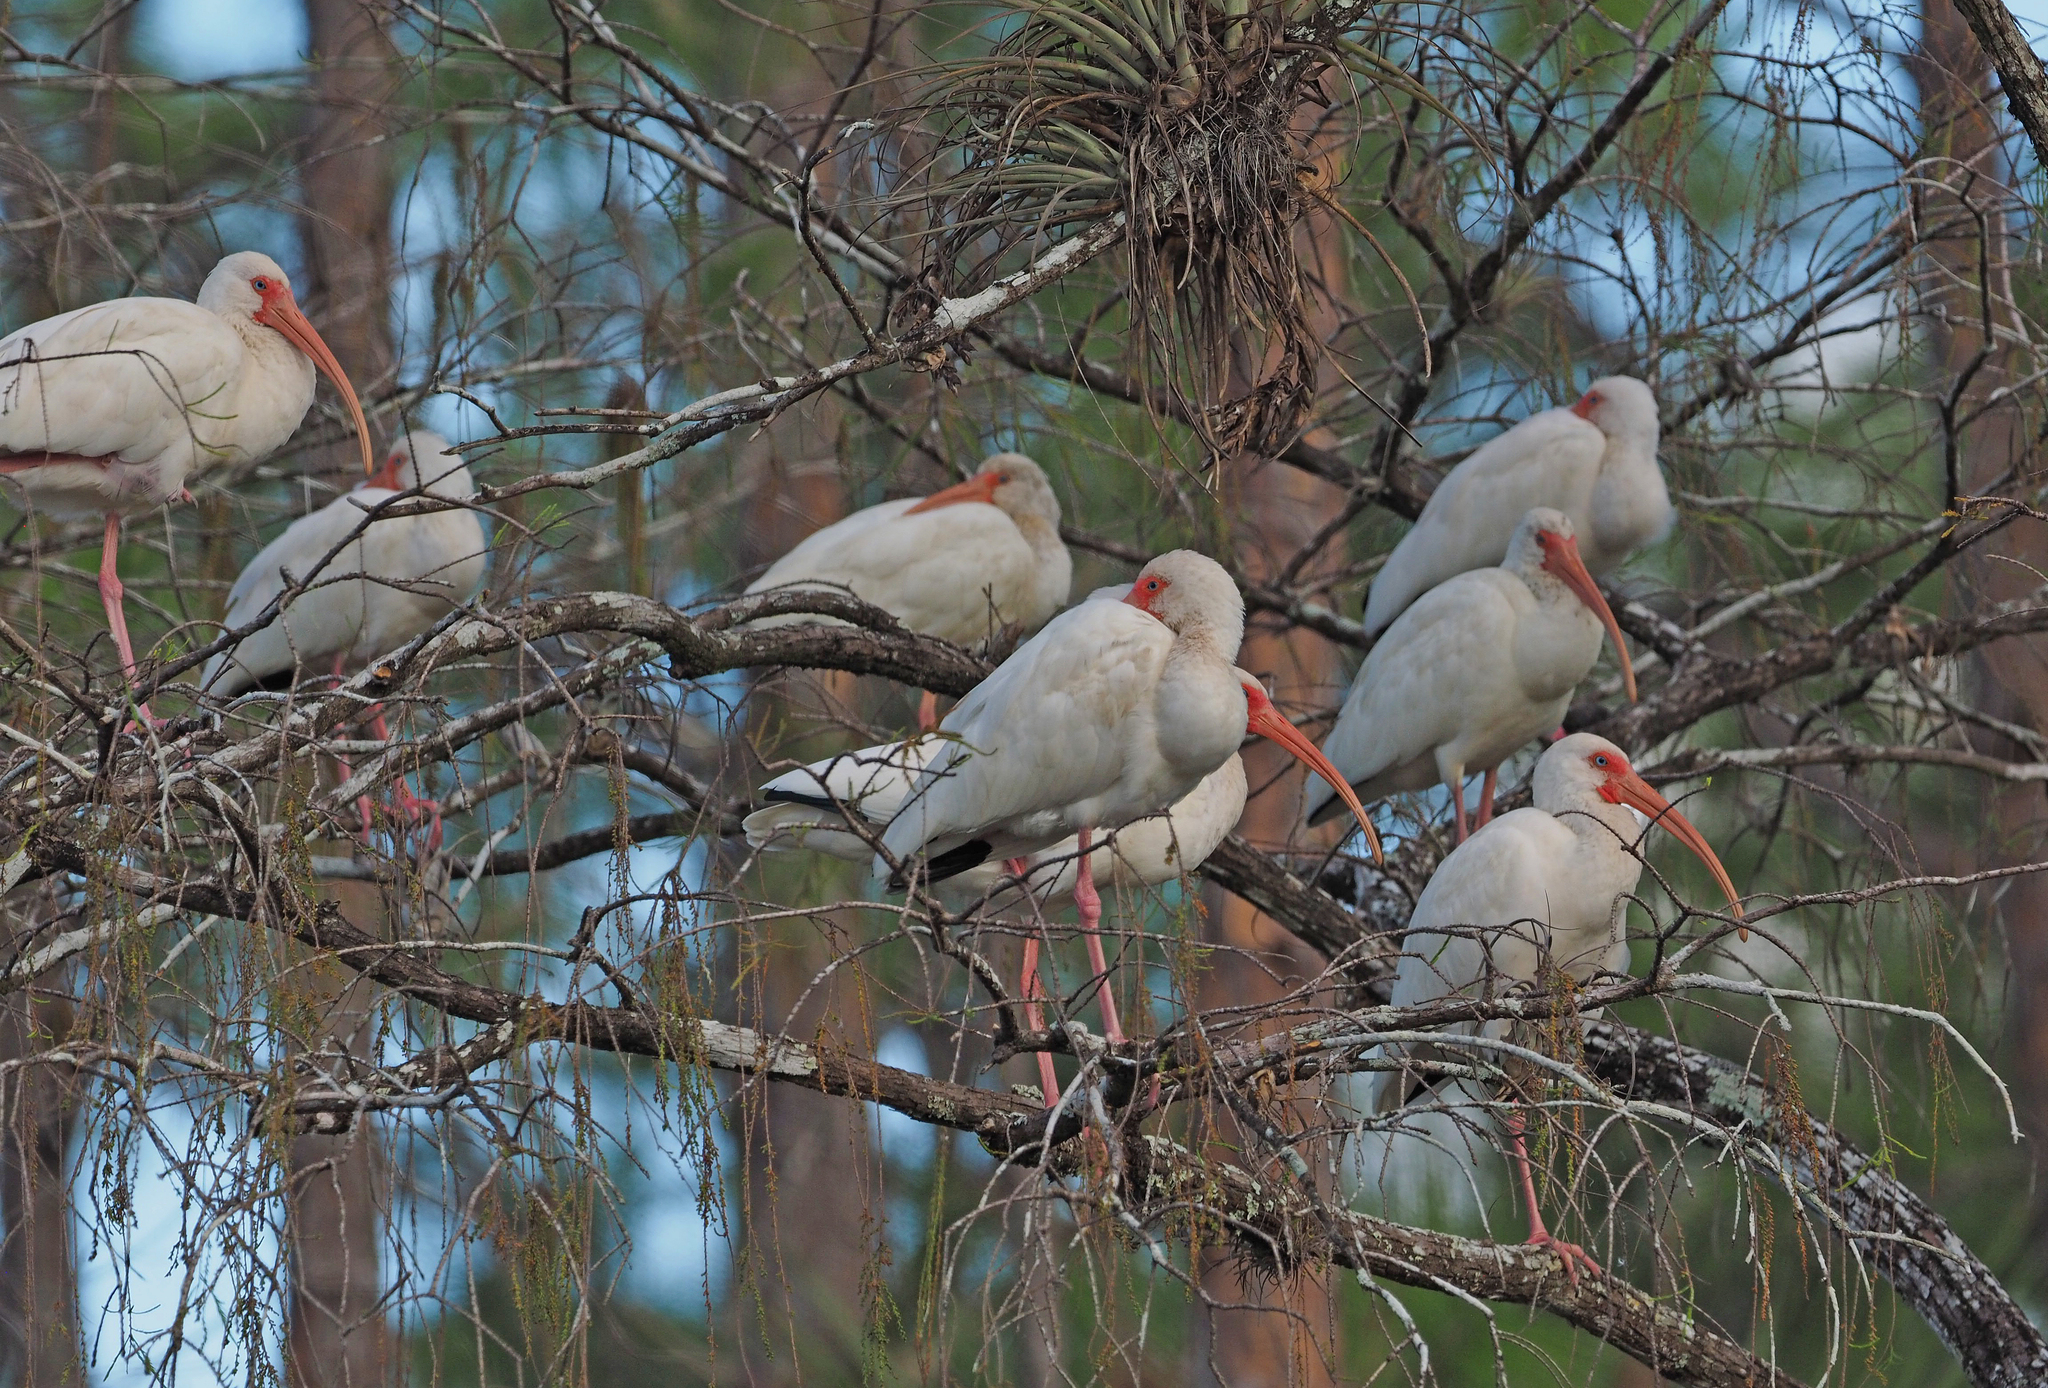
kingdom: Animalia
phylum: Chordata
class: Aves
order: Pelecaniformes
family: Threskiornithidae
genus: Eudocimus
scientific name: Eudocimus albus
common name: White ibis
